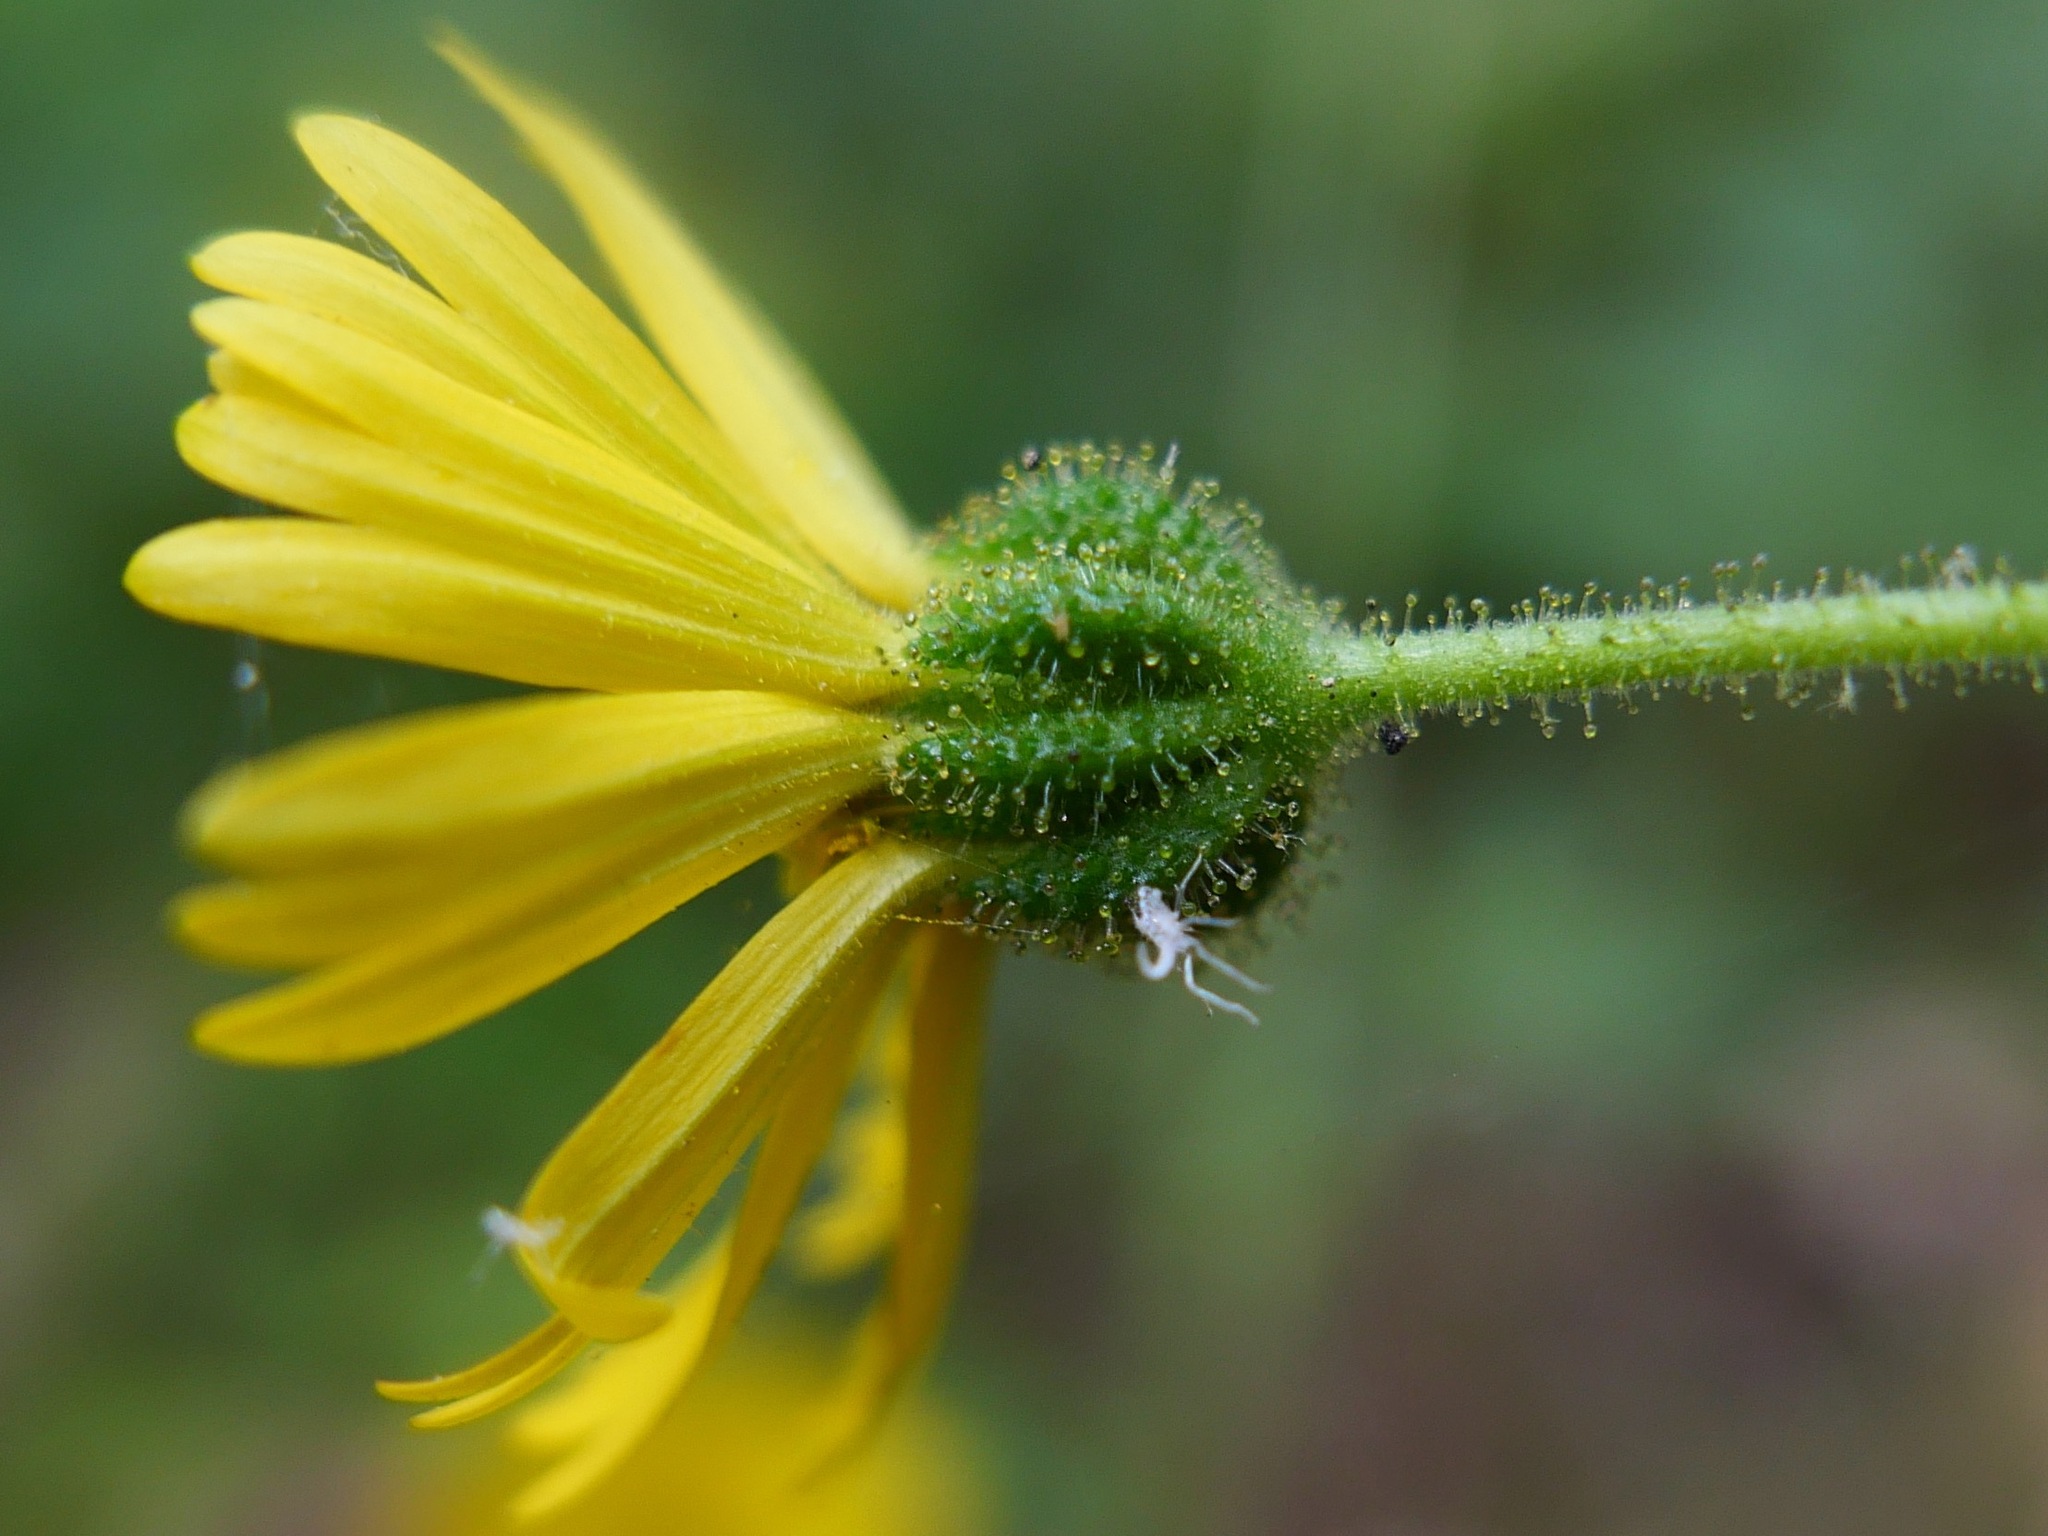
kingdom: Plantae
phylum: Tracheophyta
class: Magnoliopsida
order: Asterales
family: Asteraceae
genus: Anisocarpus
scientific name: Anisocarpus madioides
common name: Woodland madia
